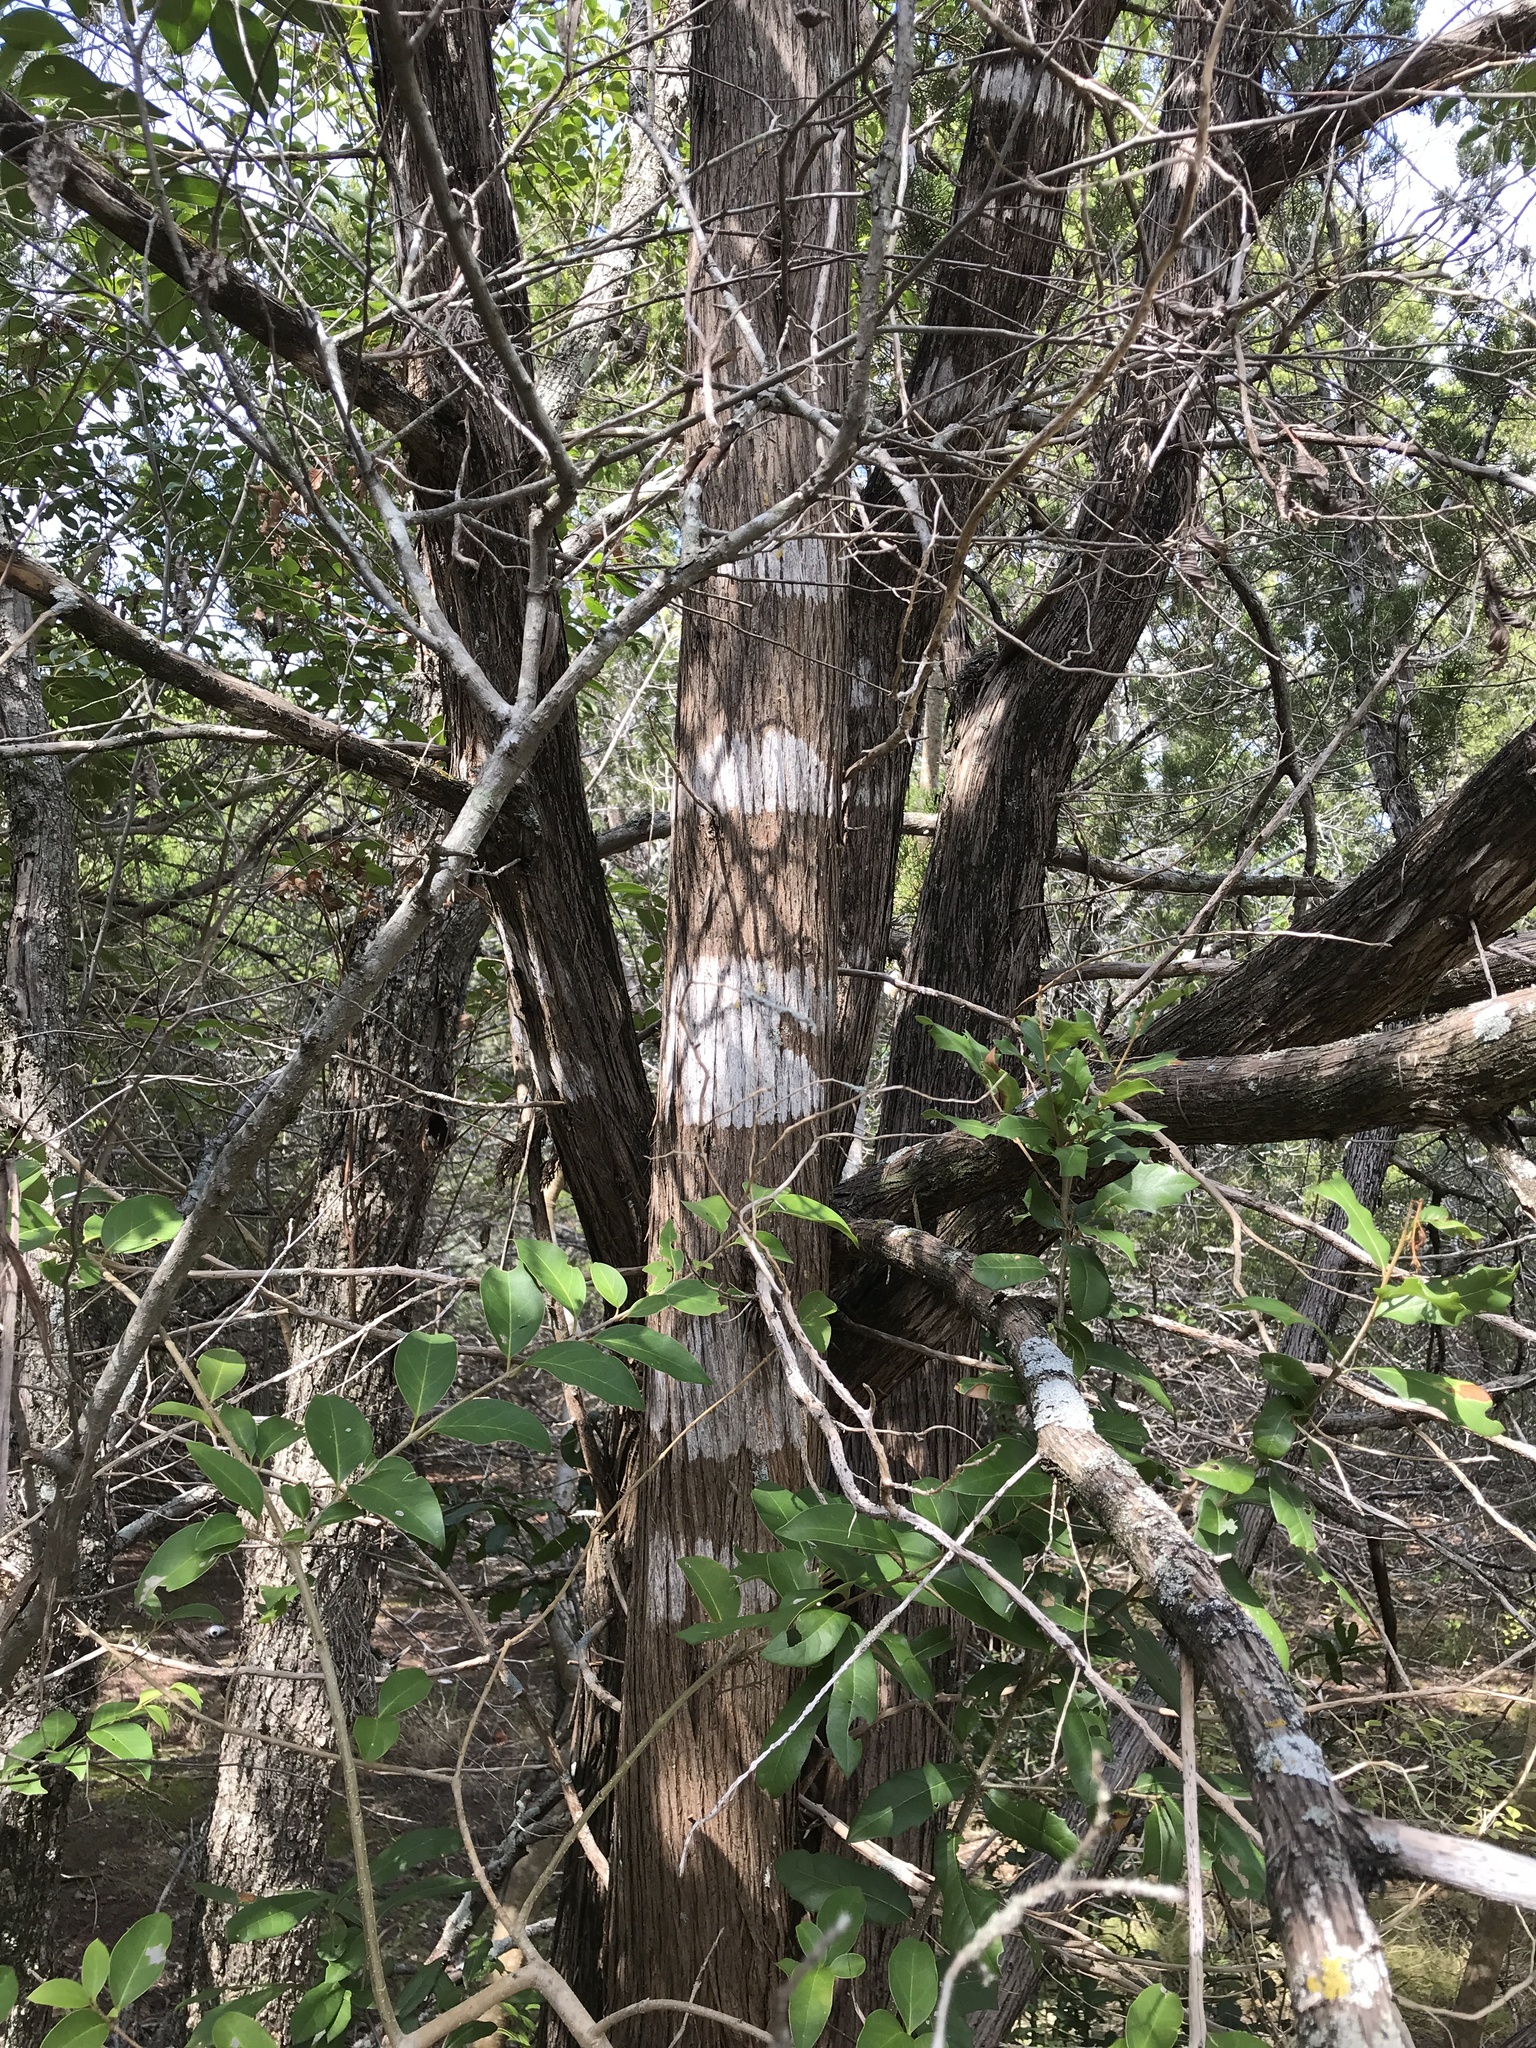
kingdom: Fungi
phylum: Ascomycota
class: Lecanoromycetes
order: Ostropales
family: Stictidaceae
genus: Robergea
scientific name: Robergea
